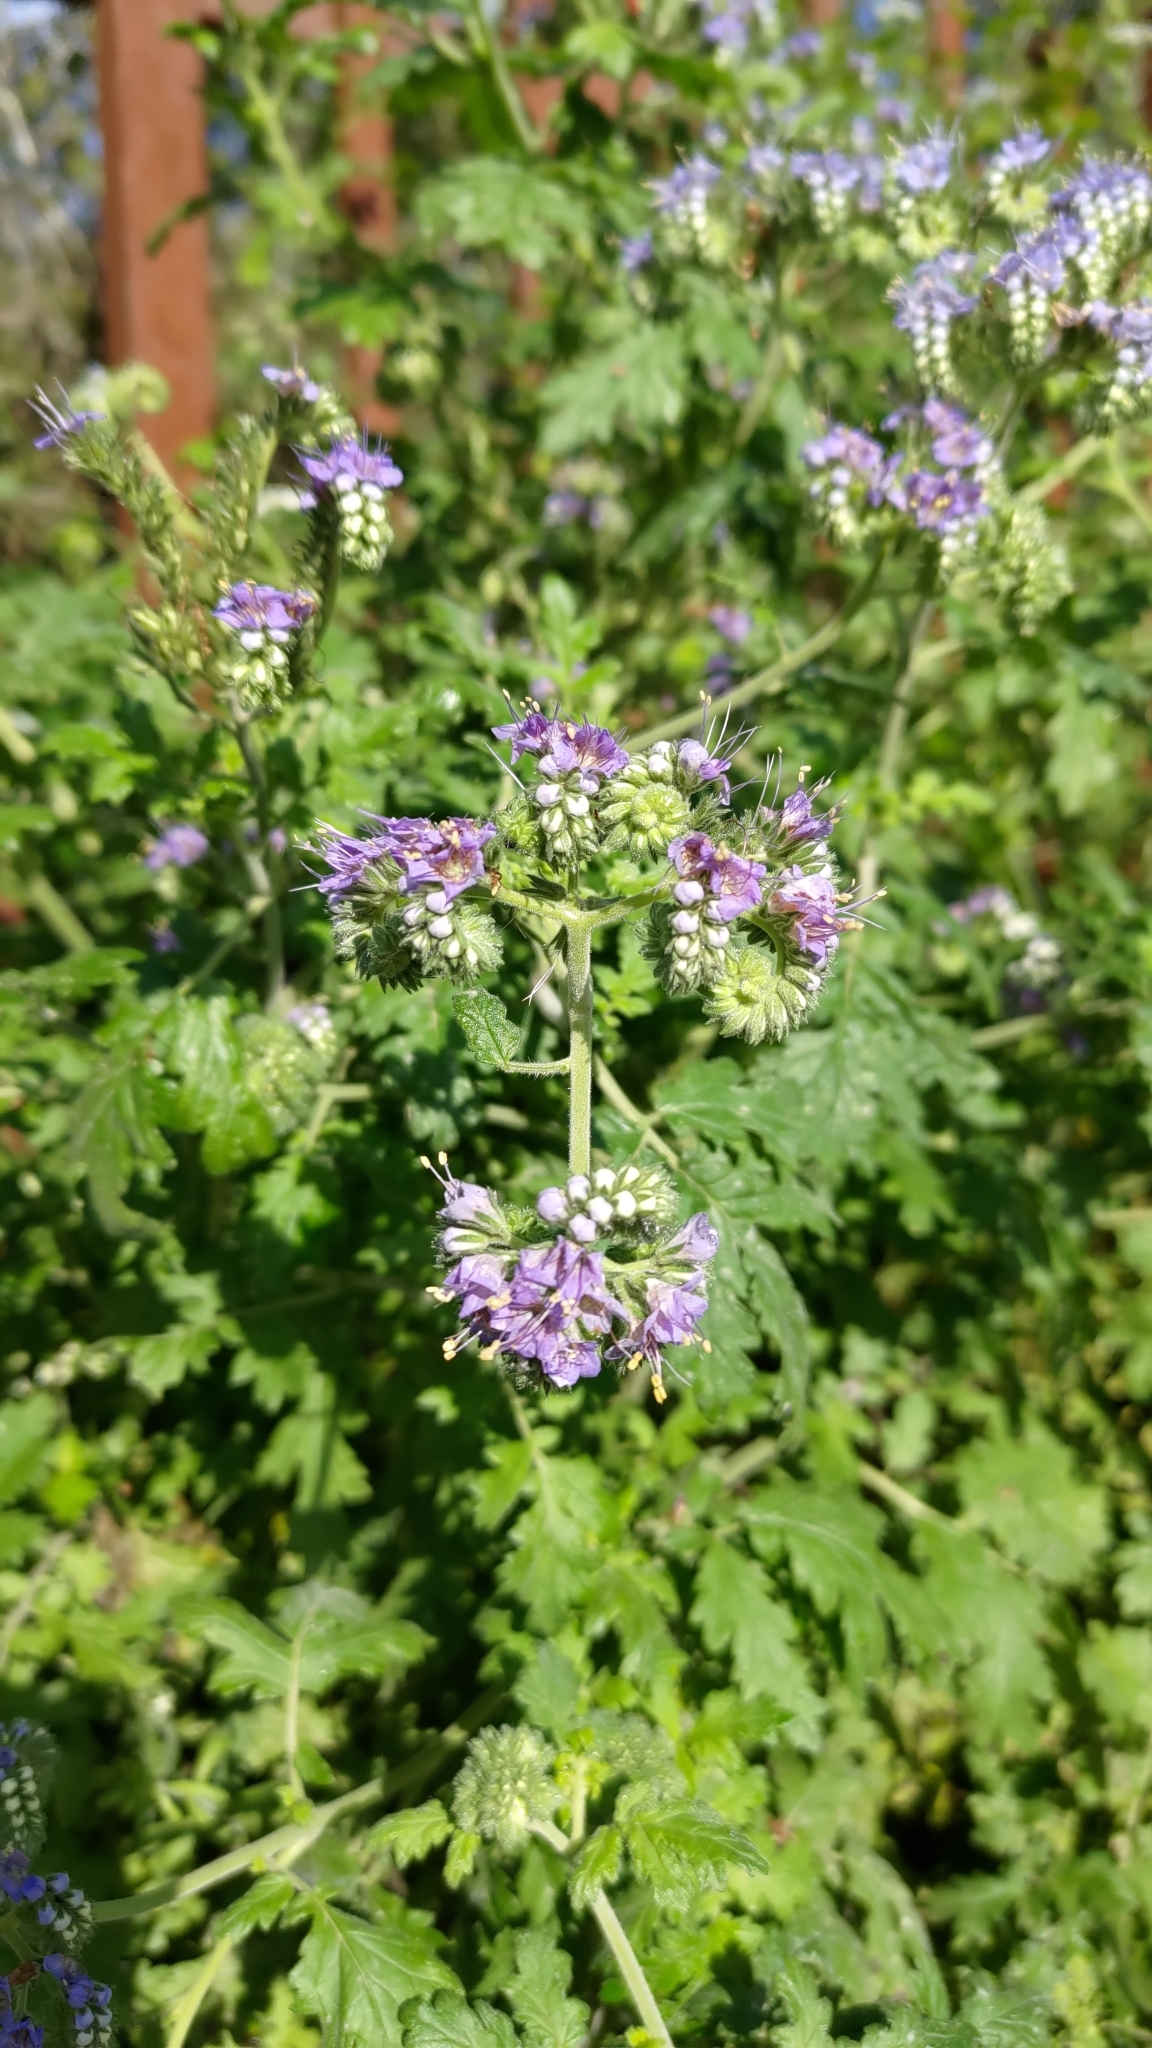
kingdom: Plantae
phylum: Tracheophyta
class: Magnoliopsida
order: Boraginales
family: Hydrophyllaceae
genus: Phacelia
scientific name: Phacelia congesta
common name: Blue curls
